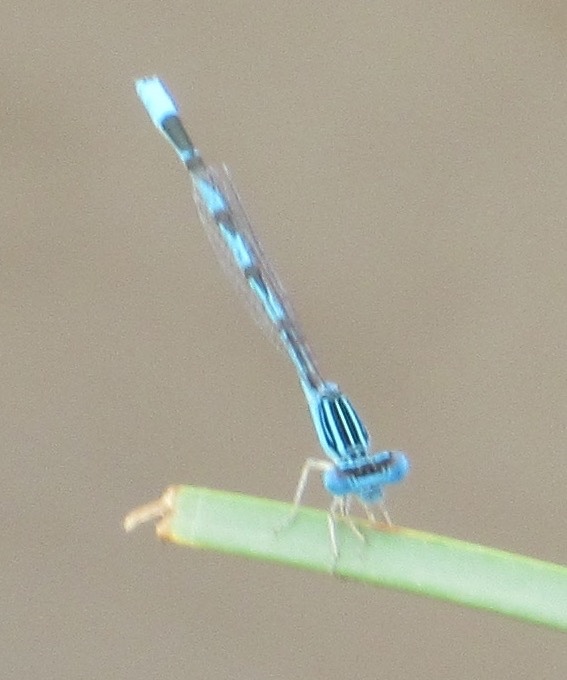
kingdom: Animalia
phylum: Arthropoda
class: Insecta
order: Odonata
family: Coenagrionidae
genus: Enallagma
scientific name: Enallagma basidens
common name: Double-striped bluet
